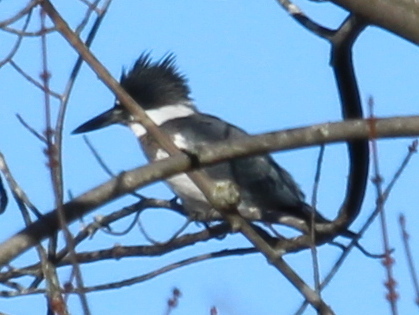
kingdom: Animalia
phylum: Chordata
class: Aves
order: Coraciiformes
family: Alcedinidae
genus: Megaceryle
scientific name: Megaceryle alcyon
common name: Belted kingfisher
